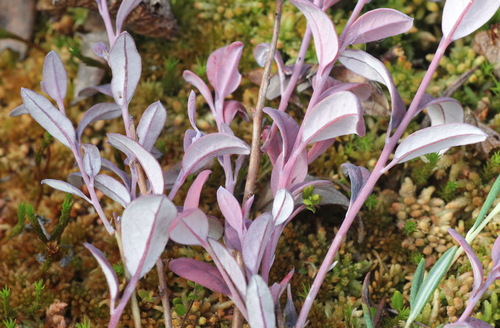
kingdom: Fungi
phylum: Basidiomycota
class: Exobasidiomycetes
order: Exobasidiales
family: Exobasidiaceae
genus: Exobasidium
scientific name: Exobasidium
